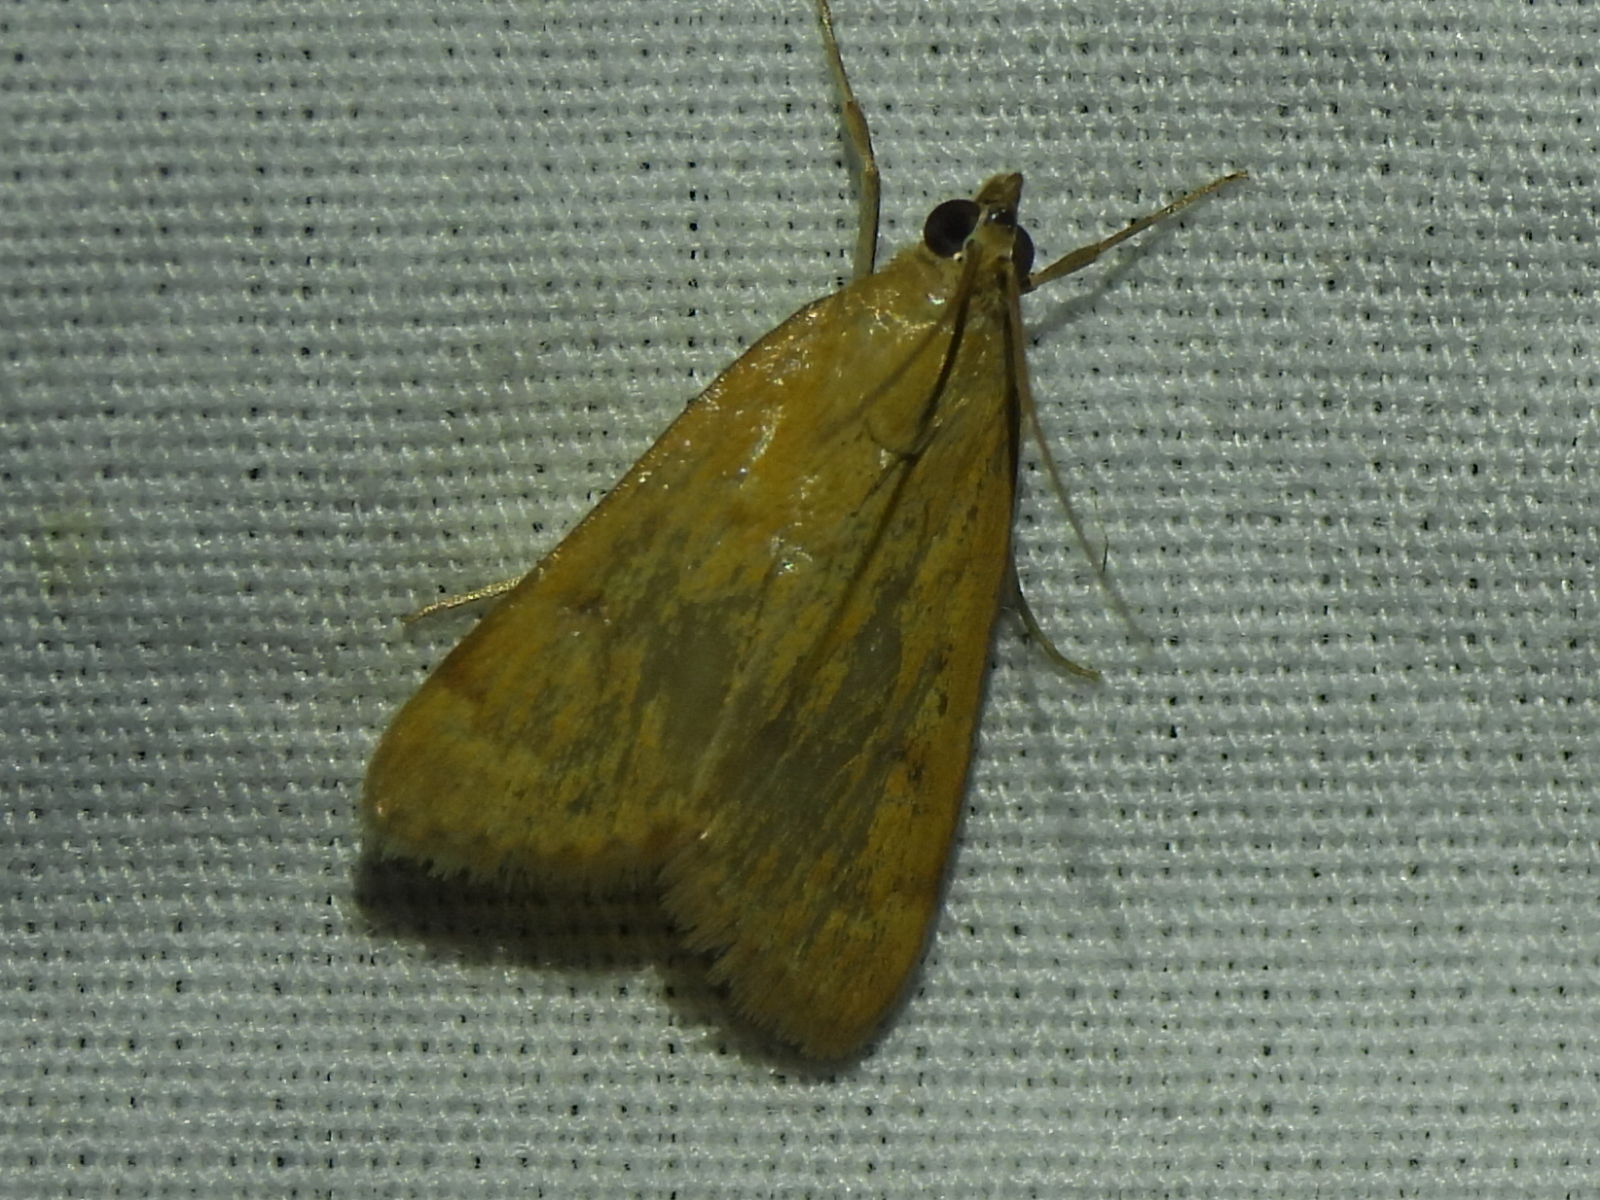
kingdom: Animalia
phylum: Arthropoda
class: Insecta
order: Lepidoptera
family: Crambidae
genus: Achyra
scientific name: Achyra rantalis
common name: Garden webworm
